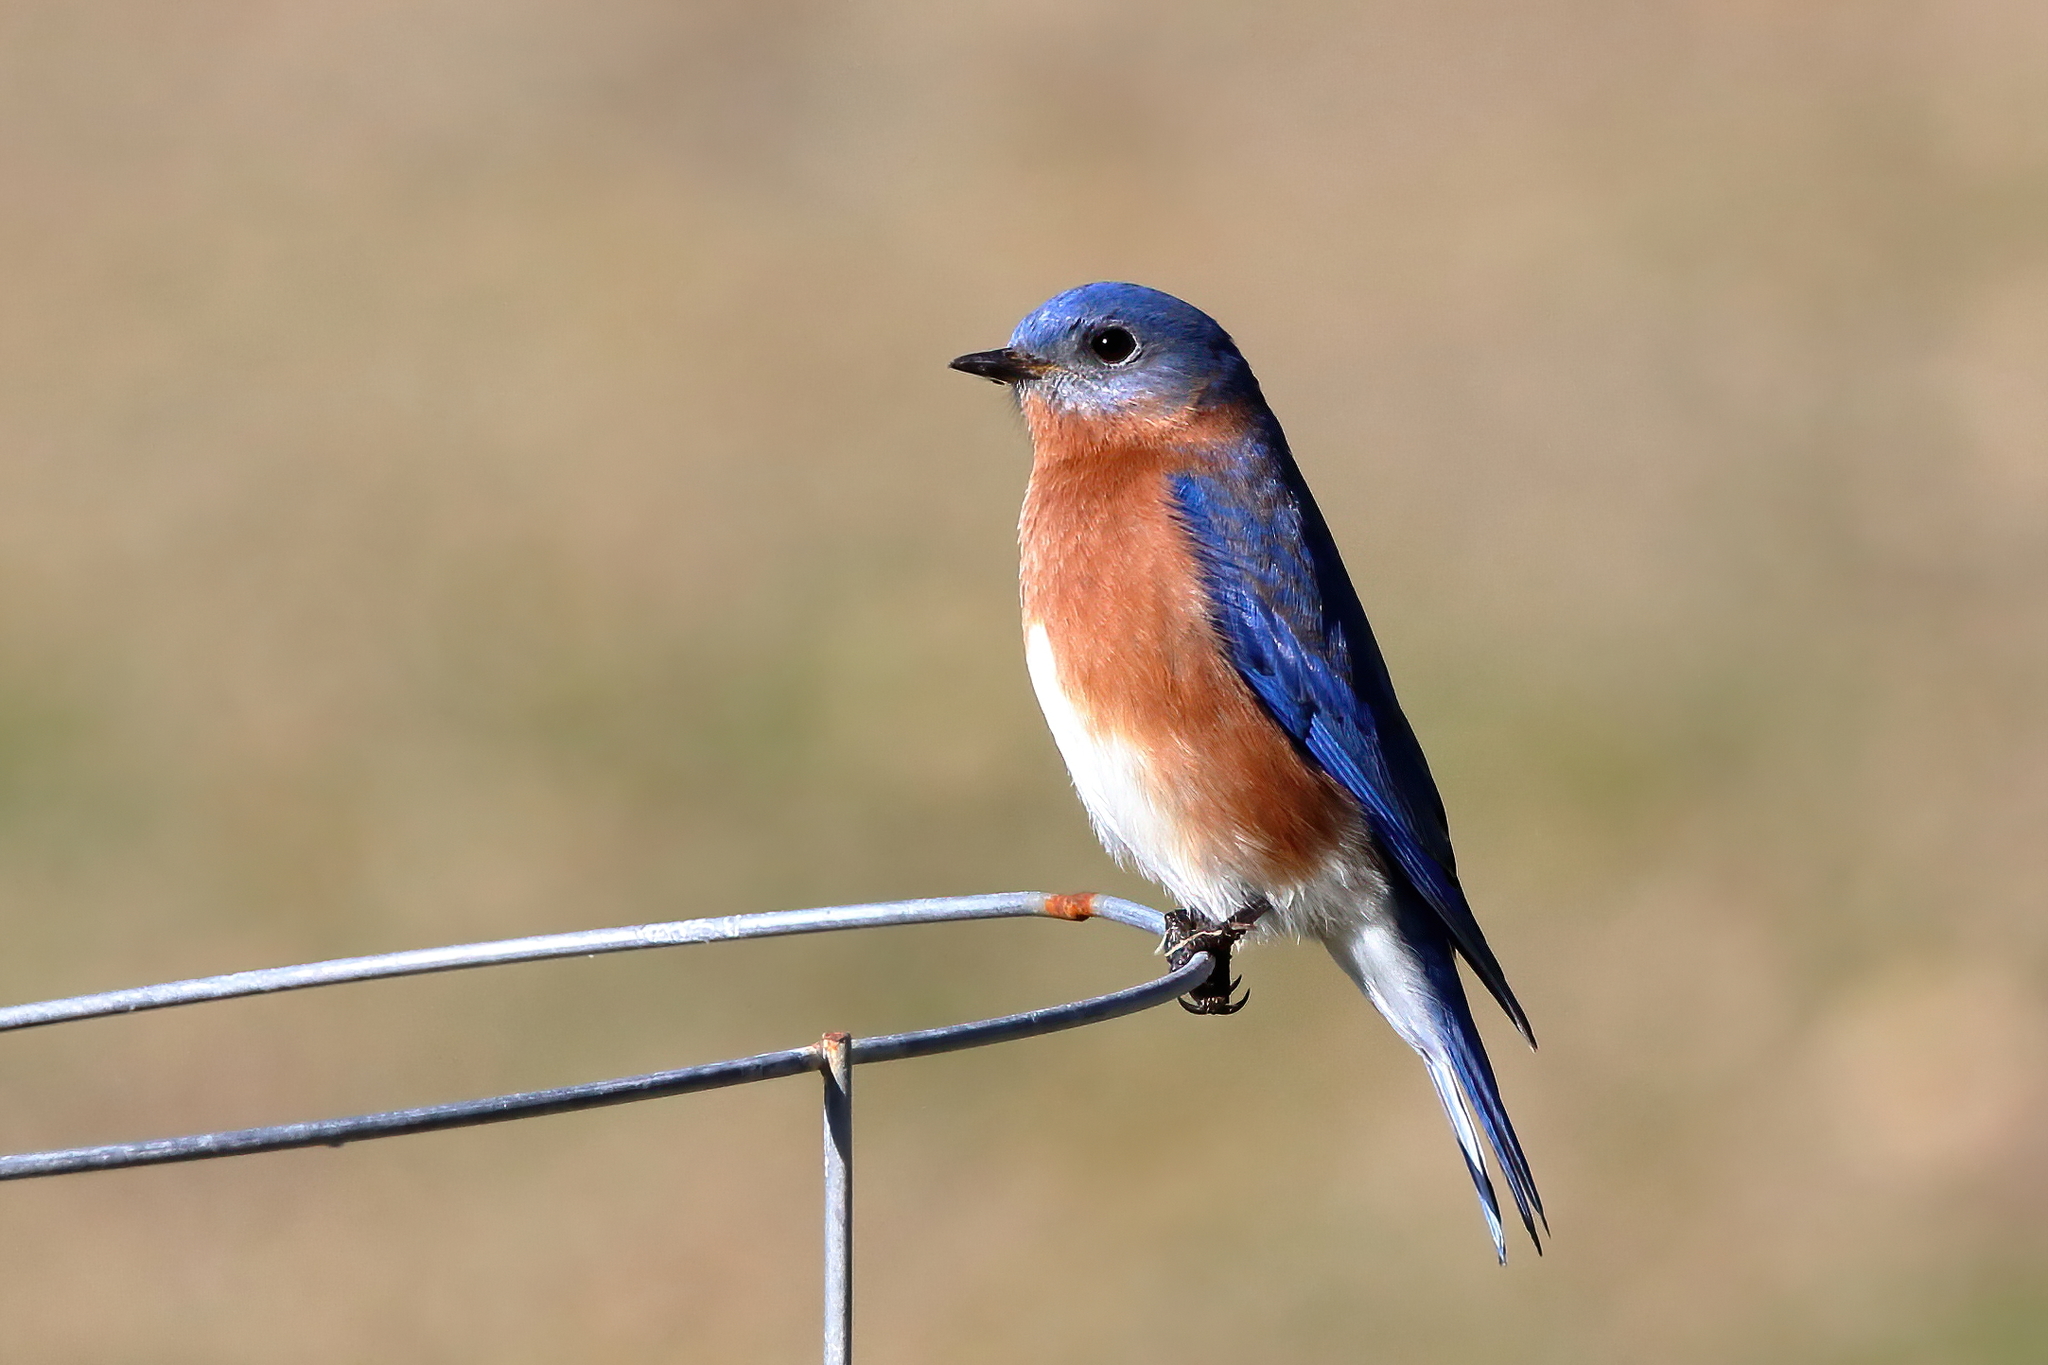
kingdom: Animalia
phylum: Chordata
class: Aves
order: Passeriformes
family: Turdidae
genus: Sialia
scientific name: Sialia sialis
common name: Eastern bluebird
